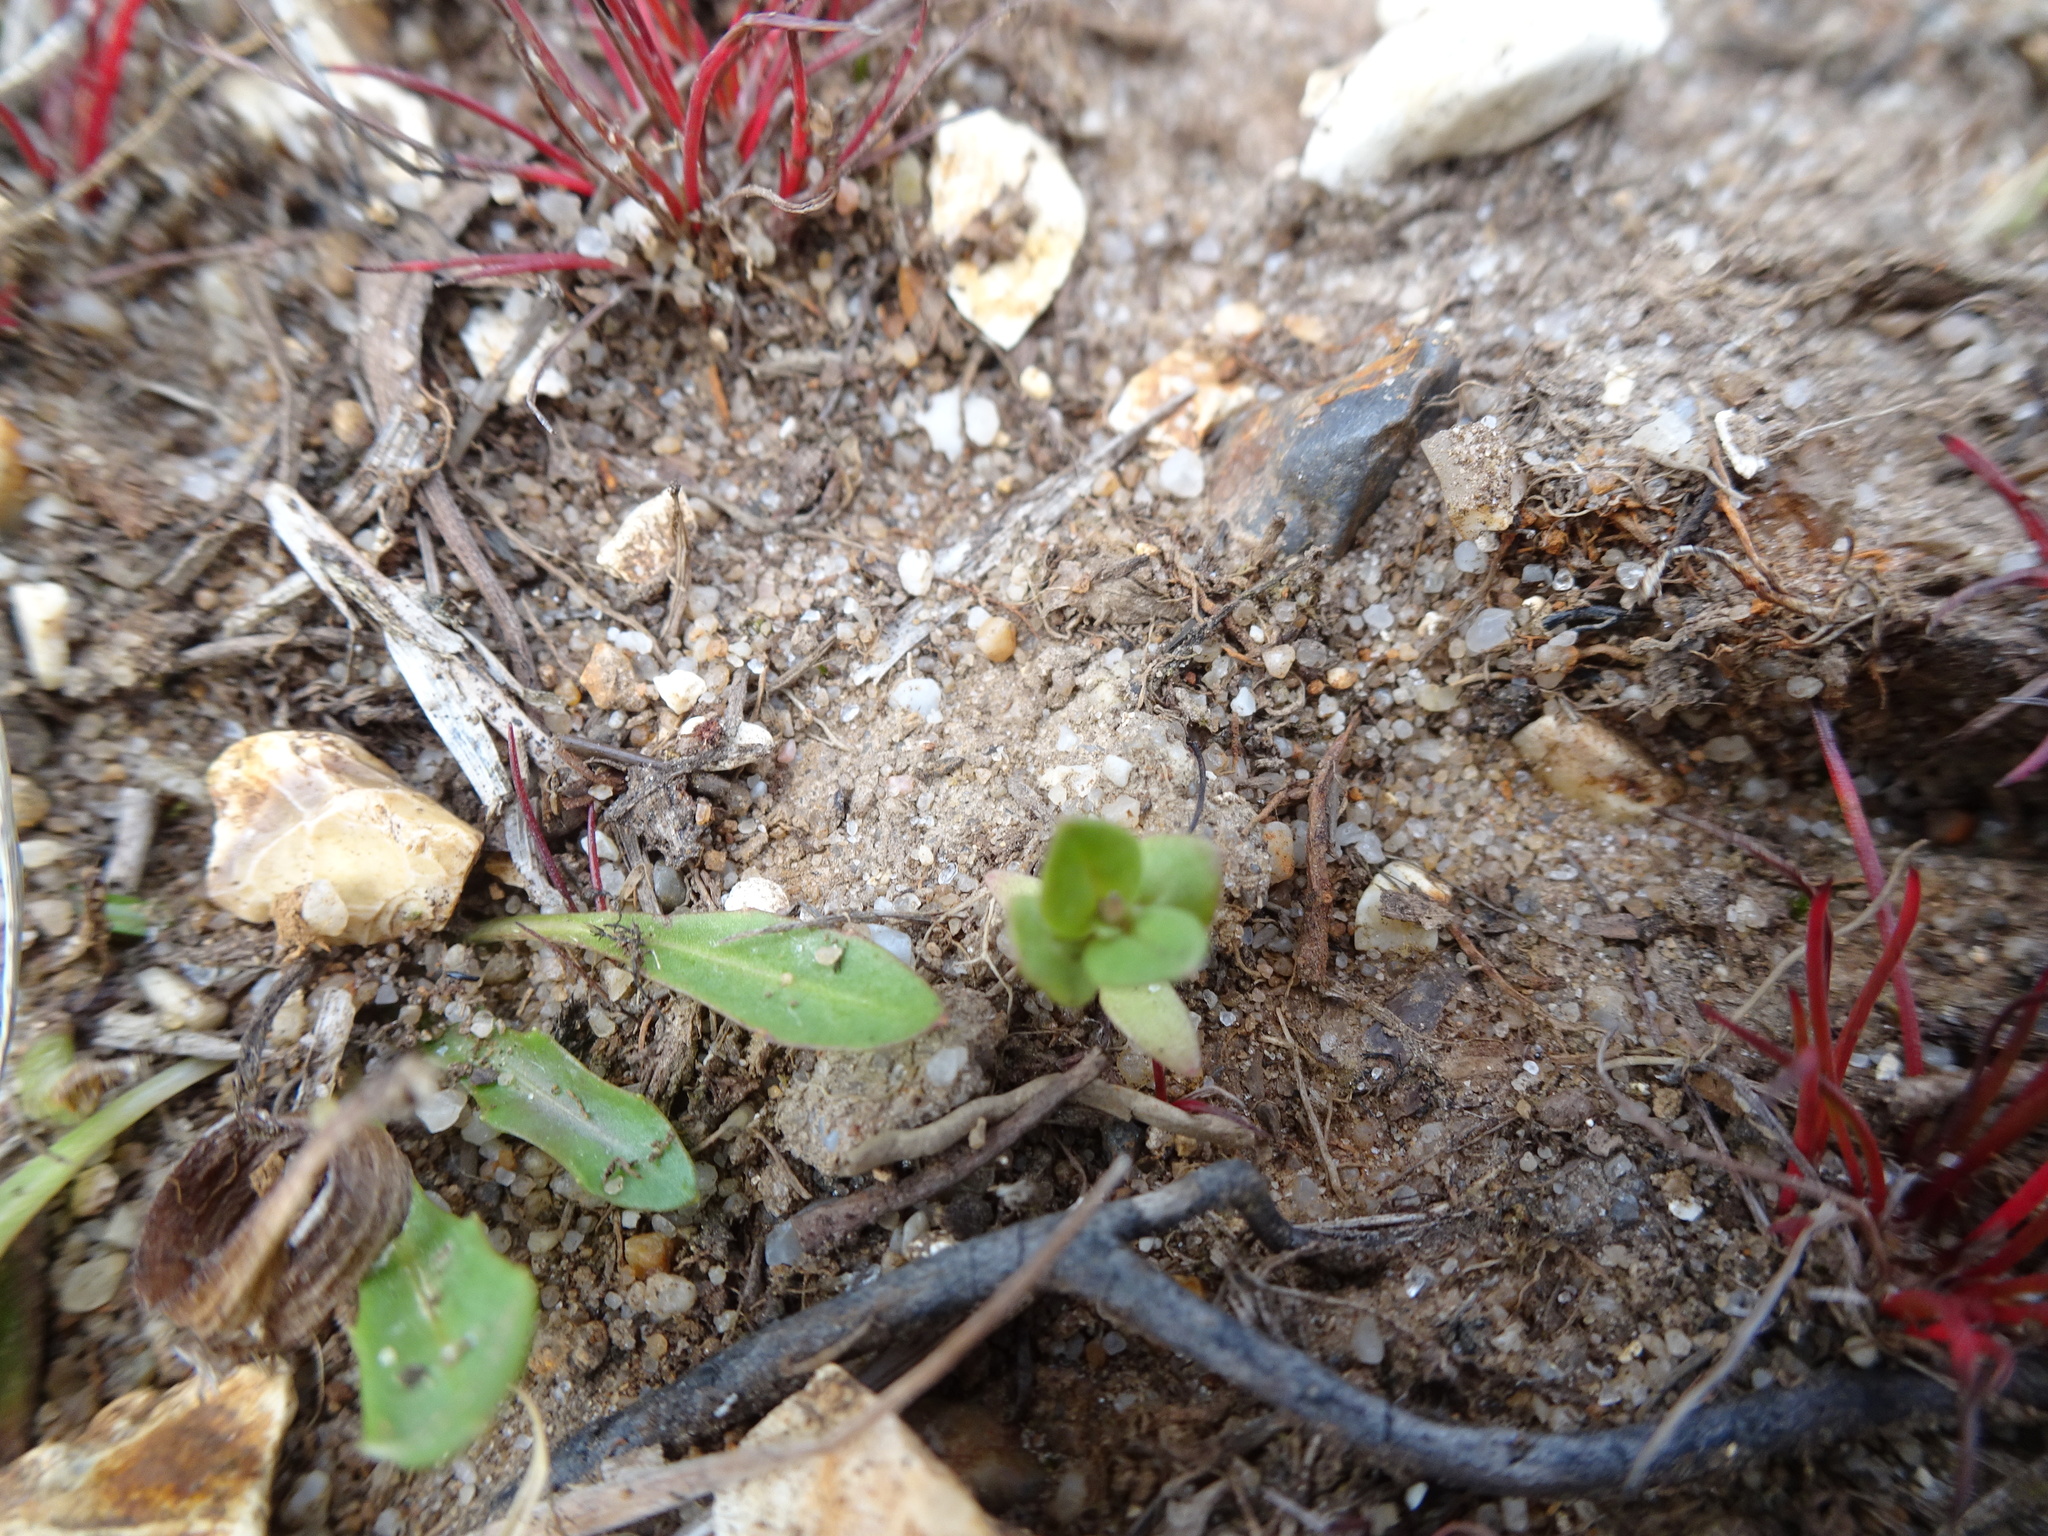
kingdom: Plantae
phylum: Tracheophyta
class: Magnoliopsida
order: Ericales
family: Primulaceae
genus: Lysimachia
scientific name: Lysimachia minima
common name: Chaffweed
